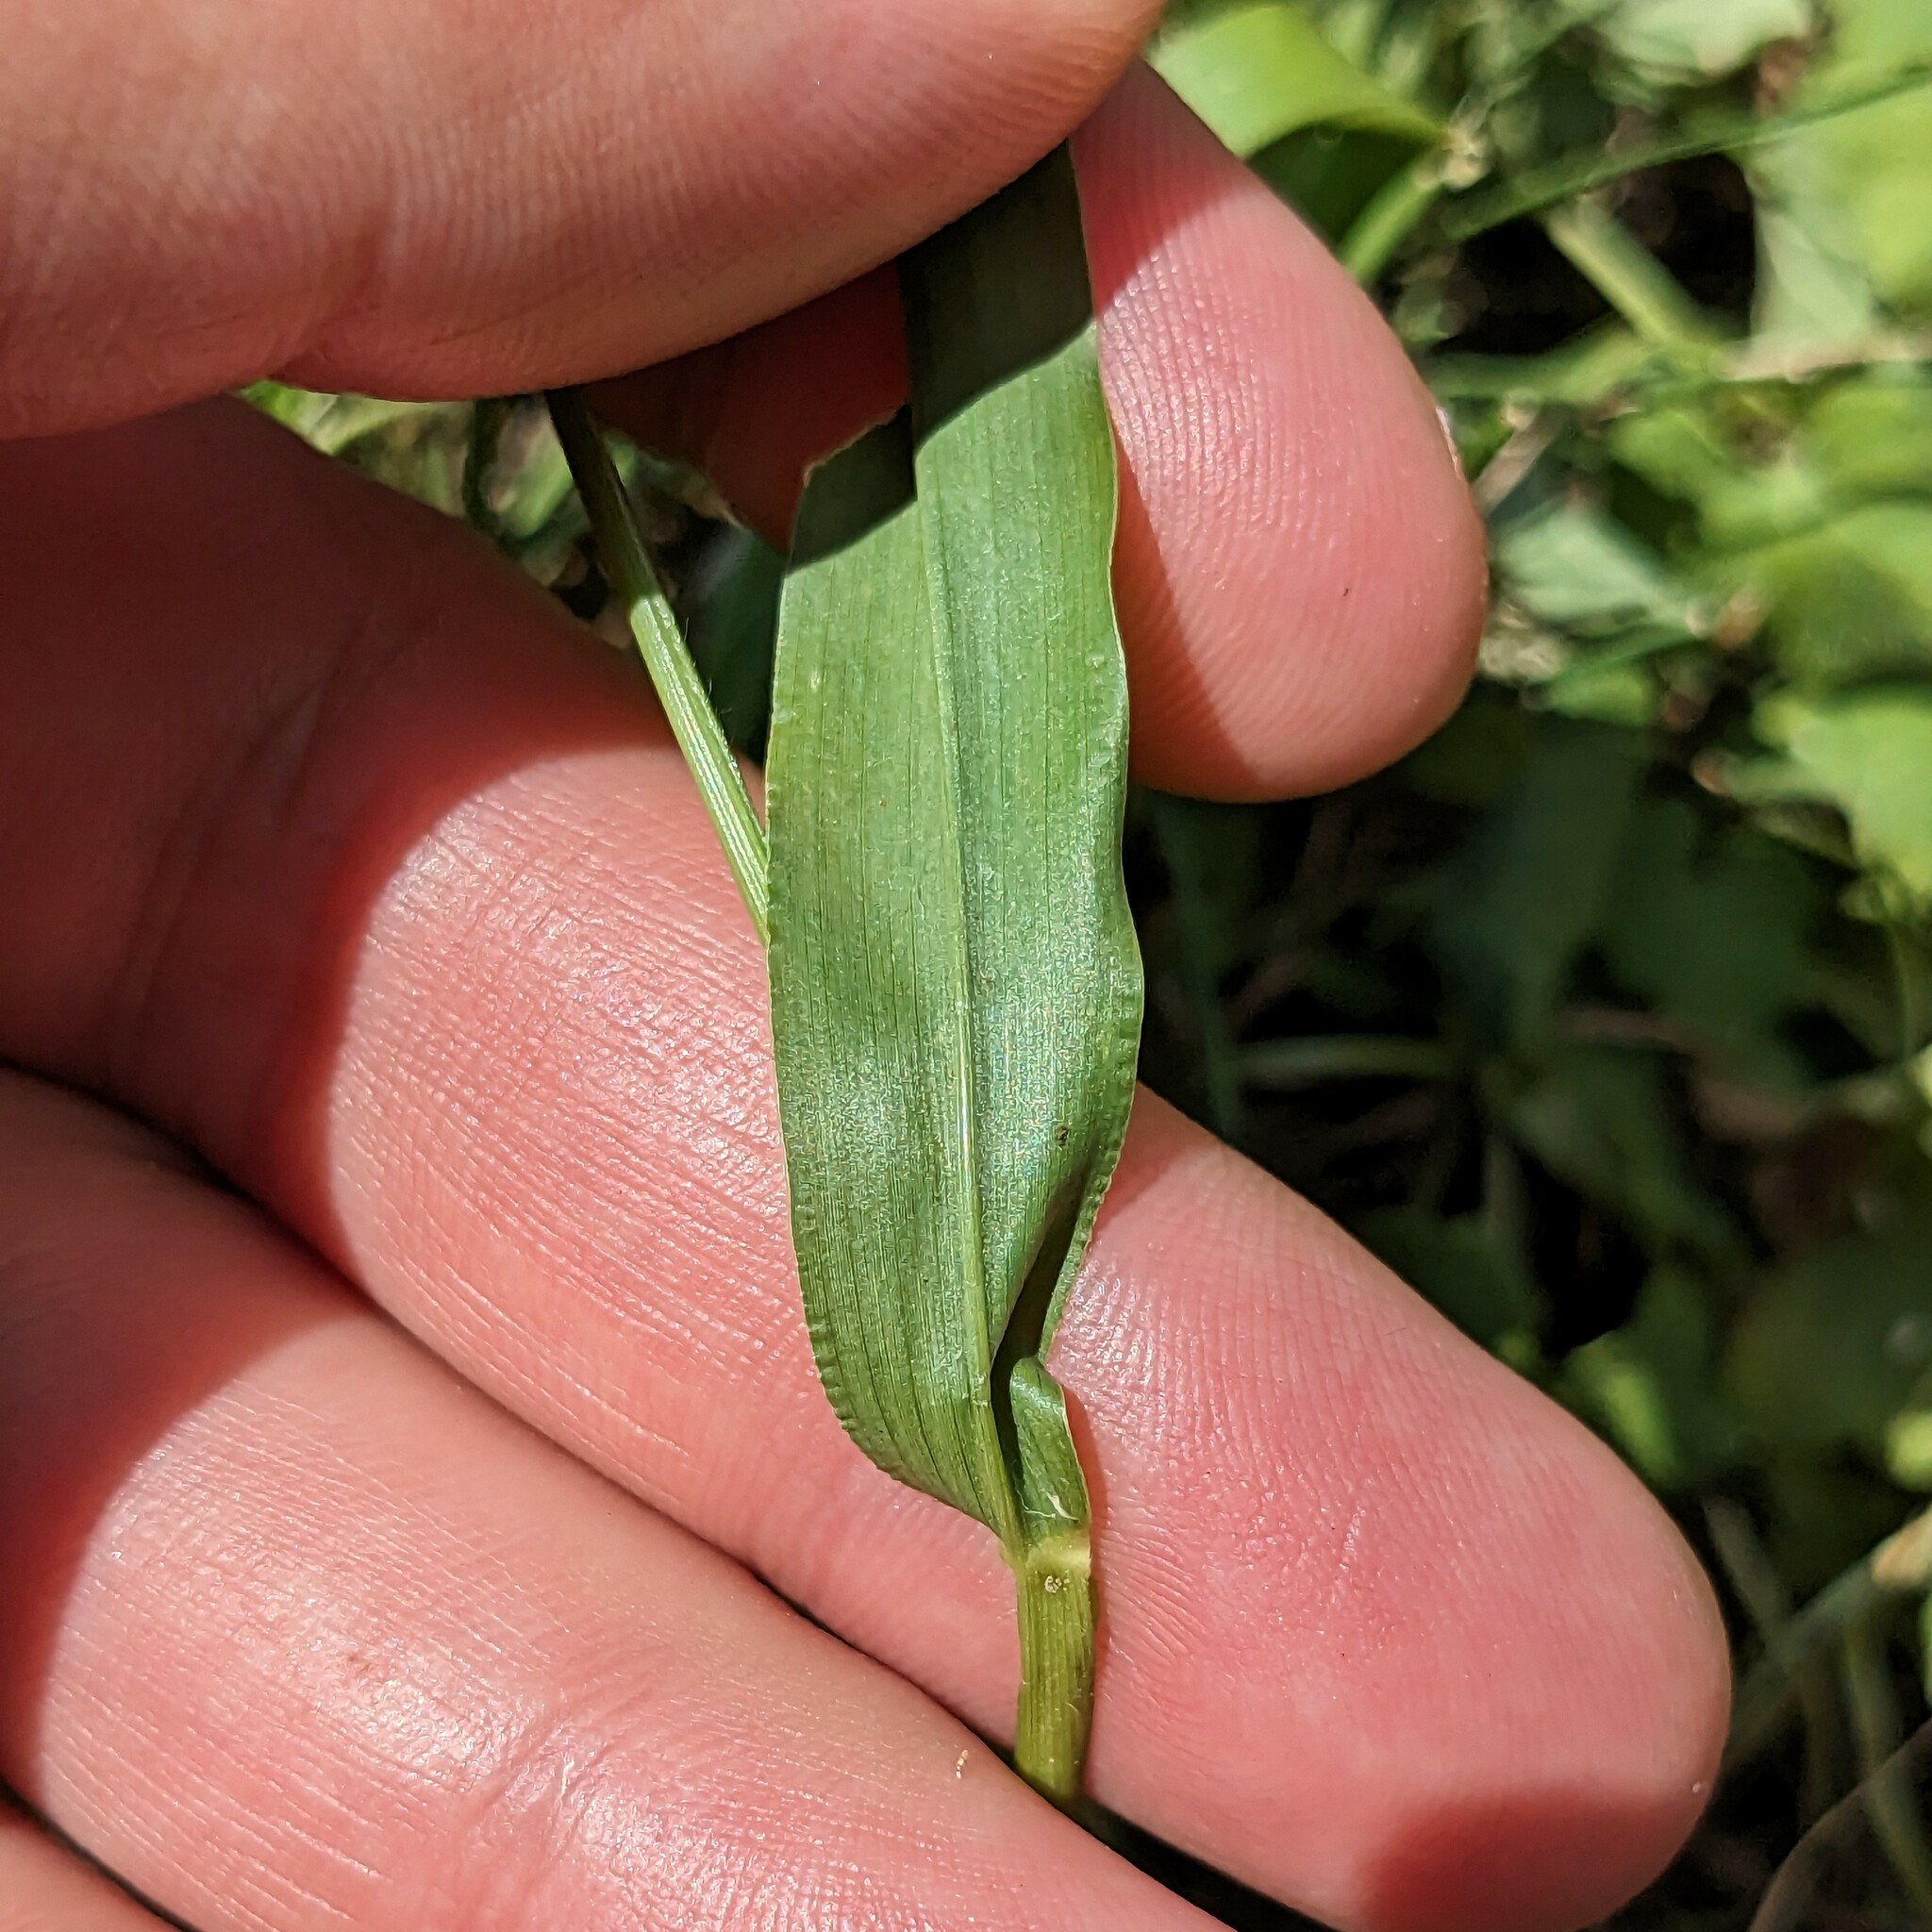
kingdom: Plantae
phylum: Tracheophyta
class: Liliopsida
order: Poales
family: Poaceae
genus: Setaria
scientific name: Setaria viridis
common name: Green bristlegrass
